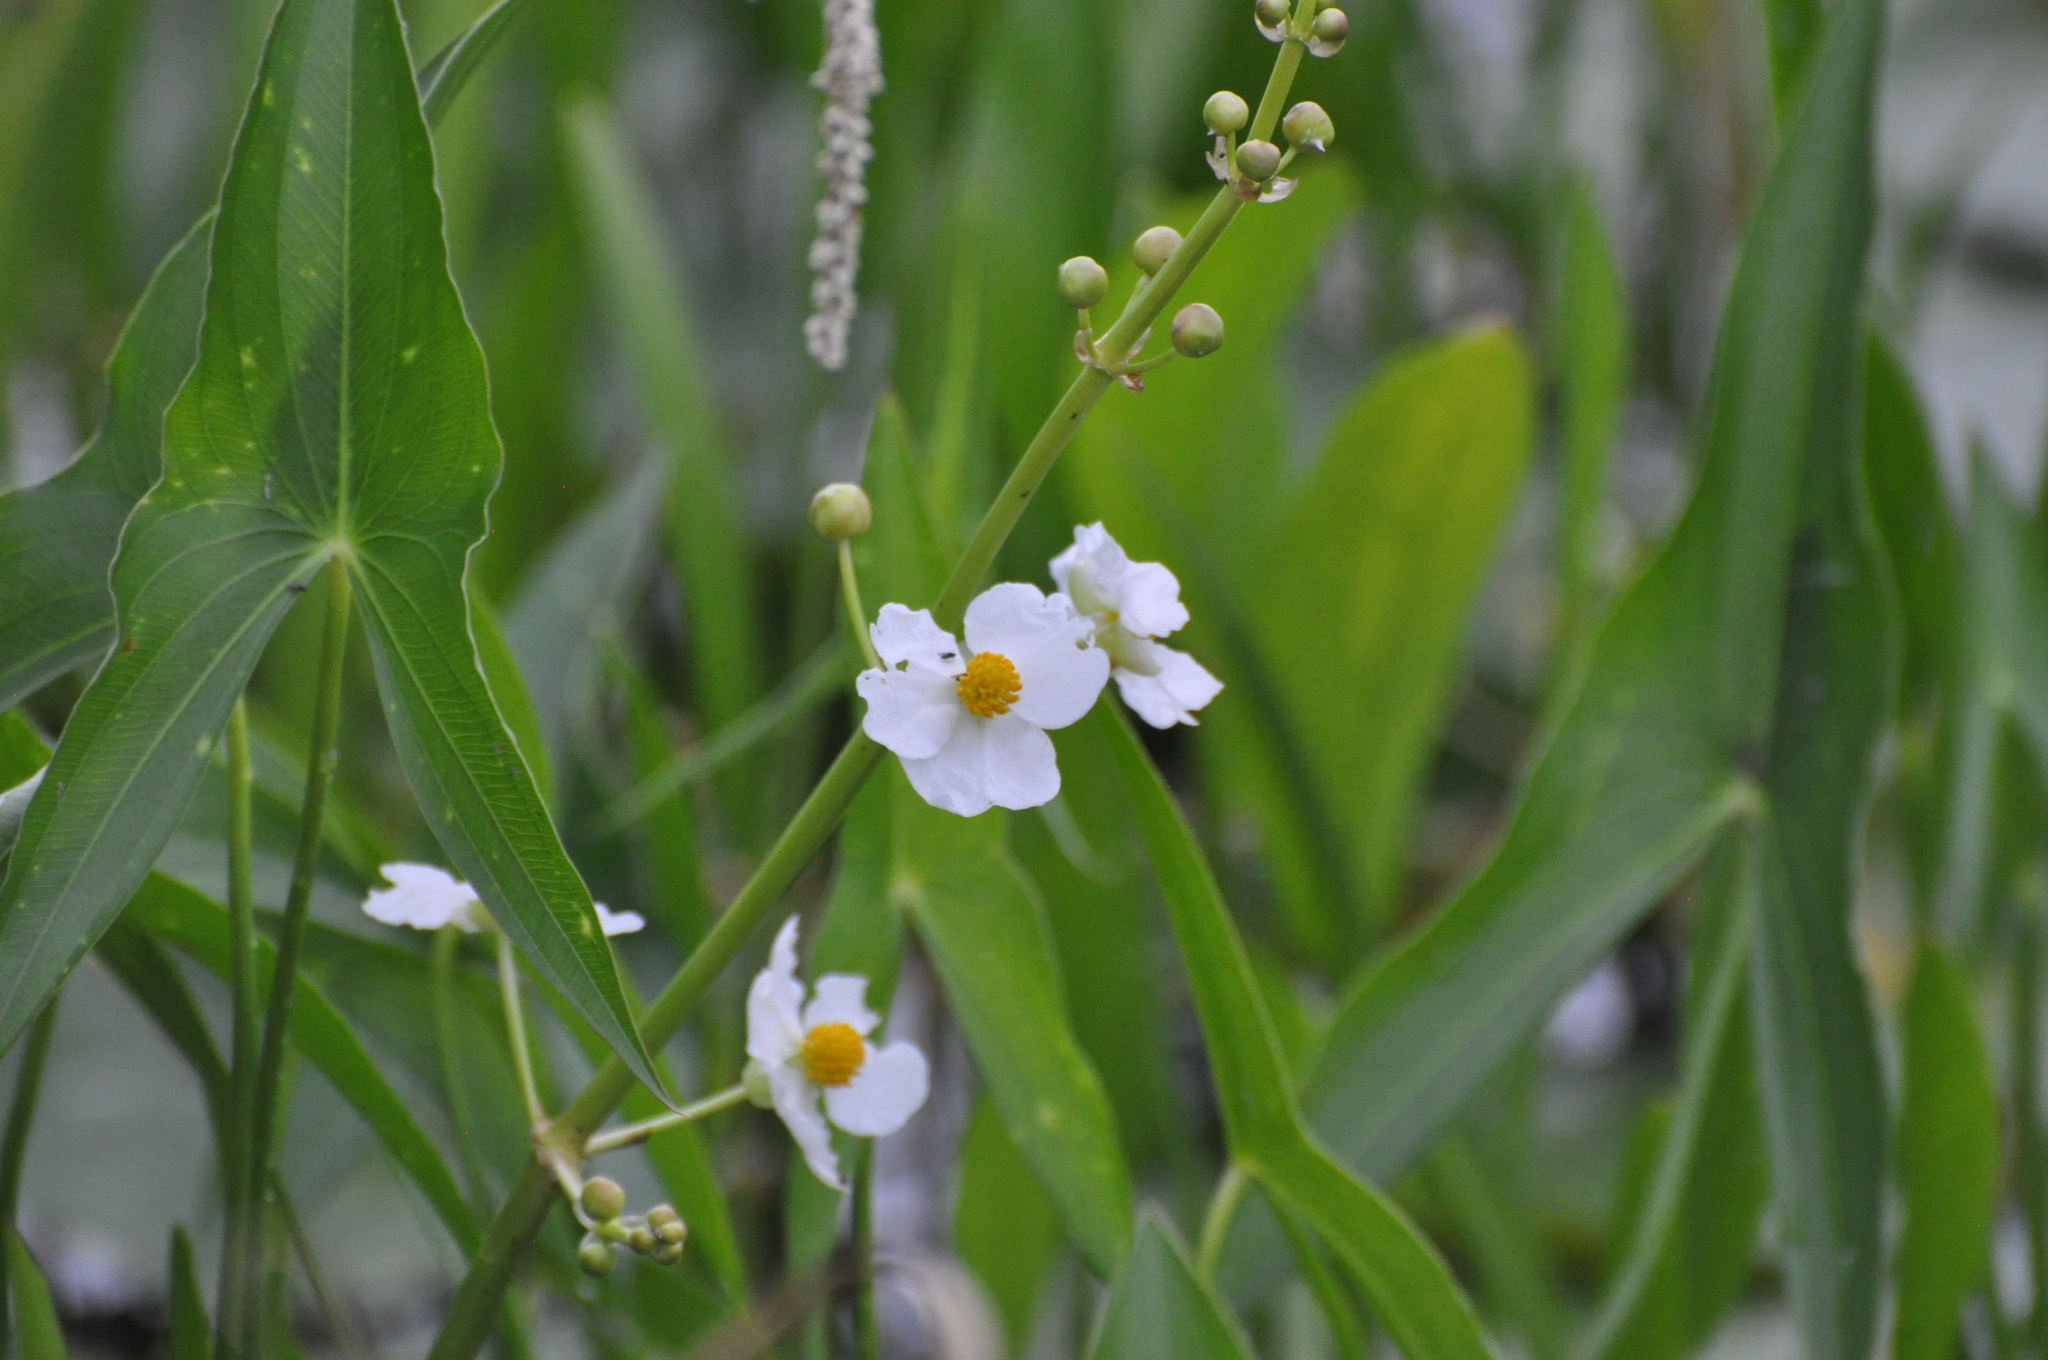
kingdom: Plantae
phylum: Tracheophyta
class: Liliopsida
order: Alismatales
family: Alismataceae
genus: Sagittaria
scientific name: Sagittaria latifolia
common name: Duck-potato
